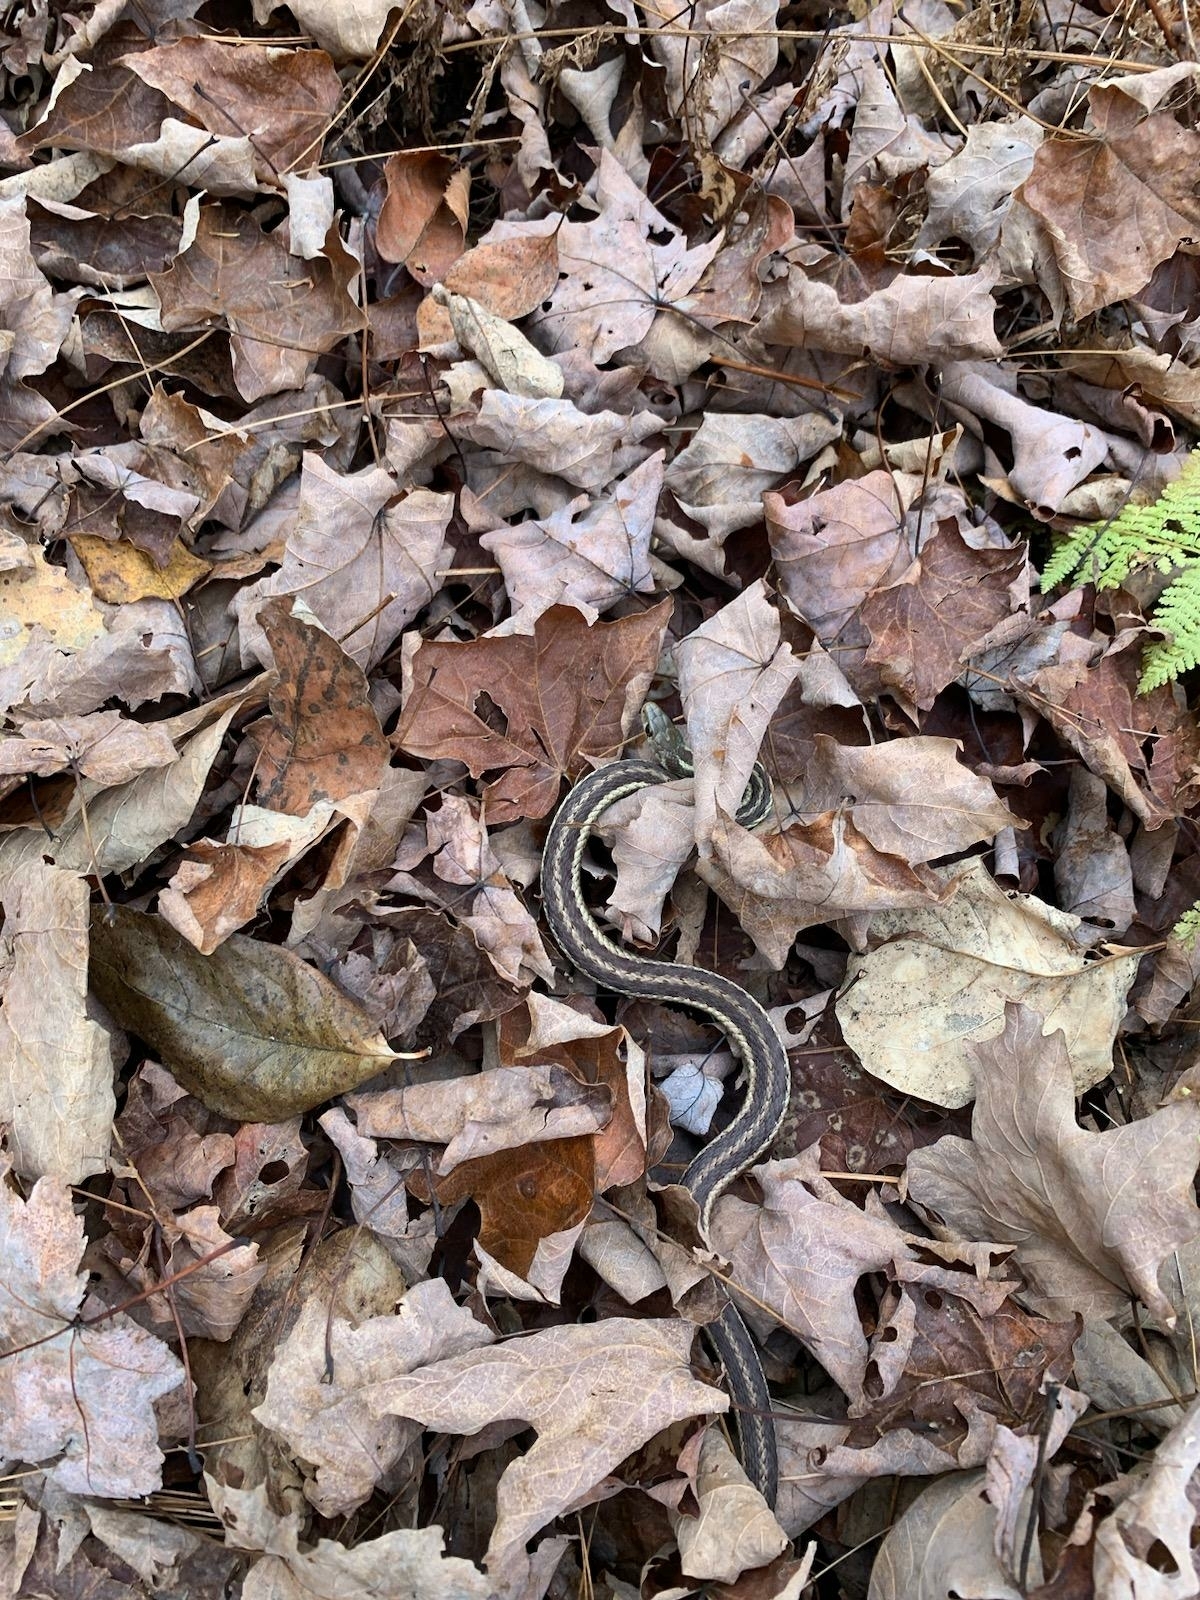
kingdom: Animalia
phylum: Chordata
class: Squamata
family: Colubridae
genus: Thamnophis
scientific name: Thamnophis sirtalis
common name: Common garter snake
